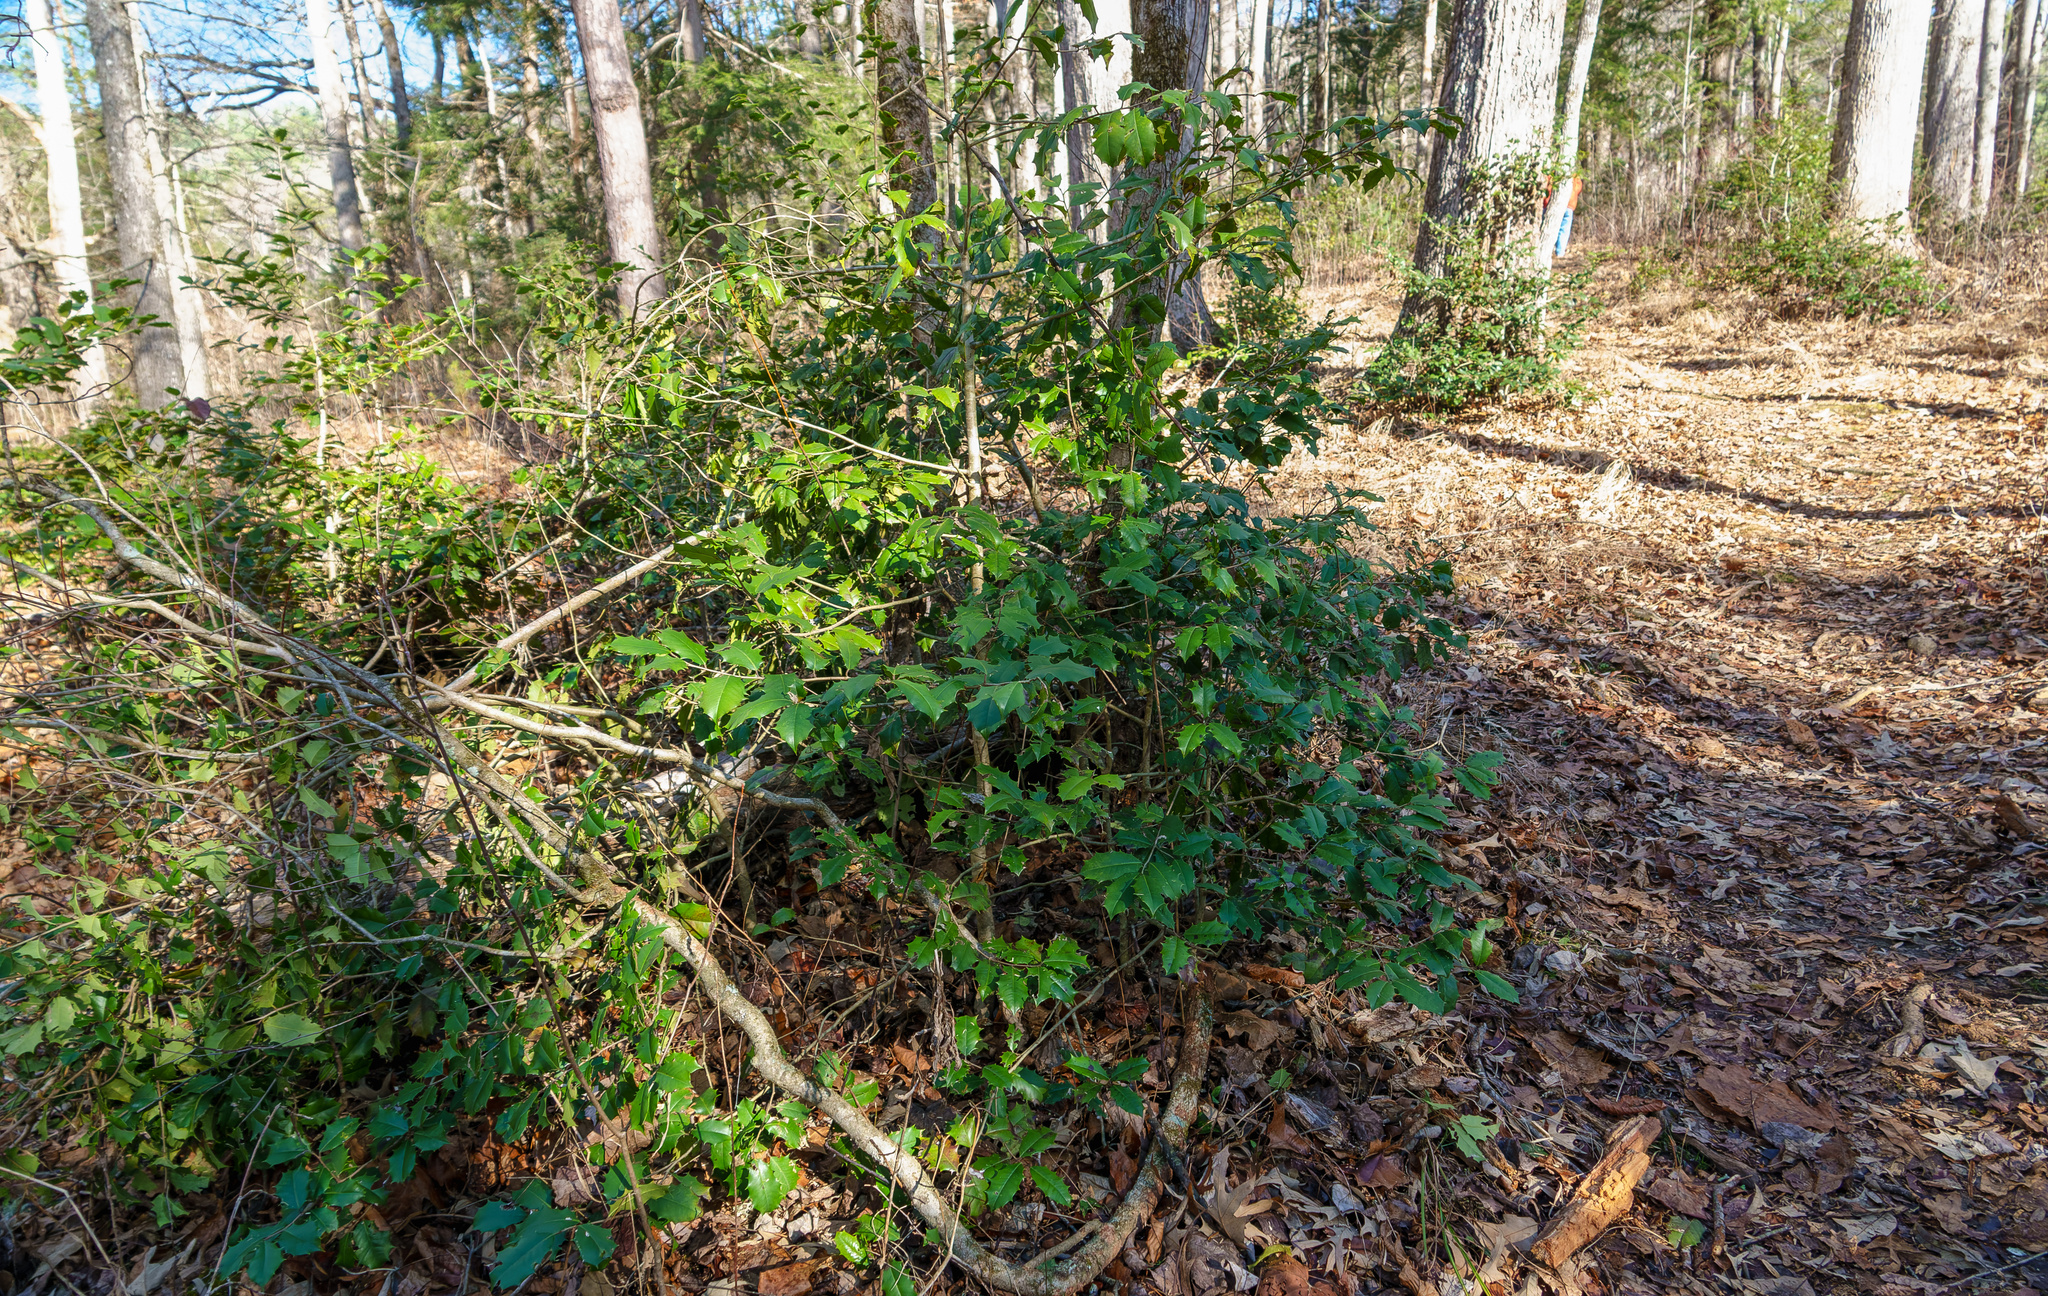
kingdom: Plantae
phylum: Tracheophyta
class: Magnoliopsida
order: Aquifoliales
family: Aquifoliaceae
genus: Ilex
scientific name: Ilex opaca
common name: American holly
